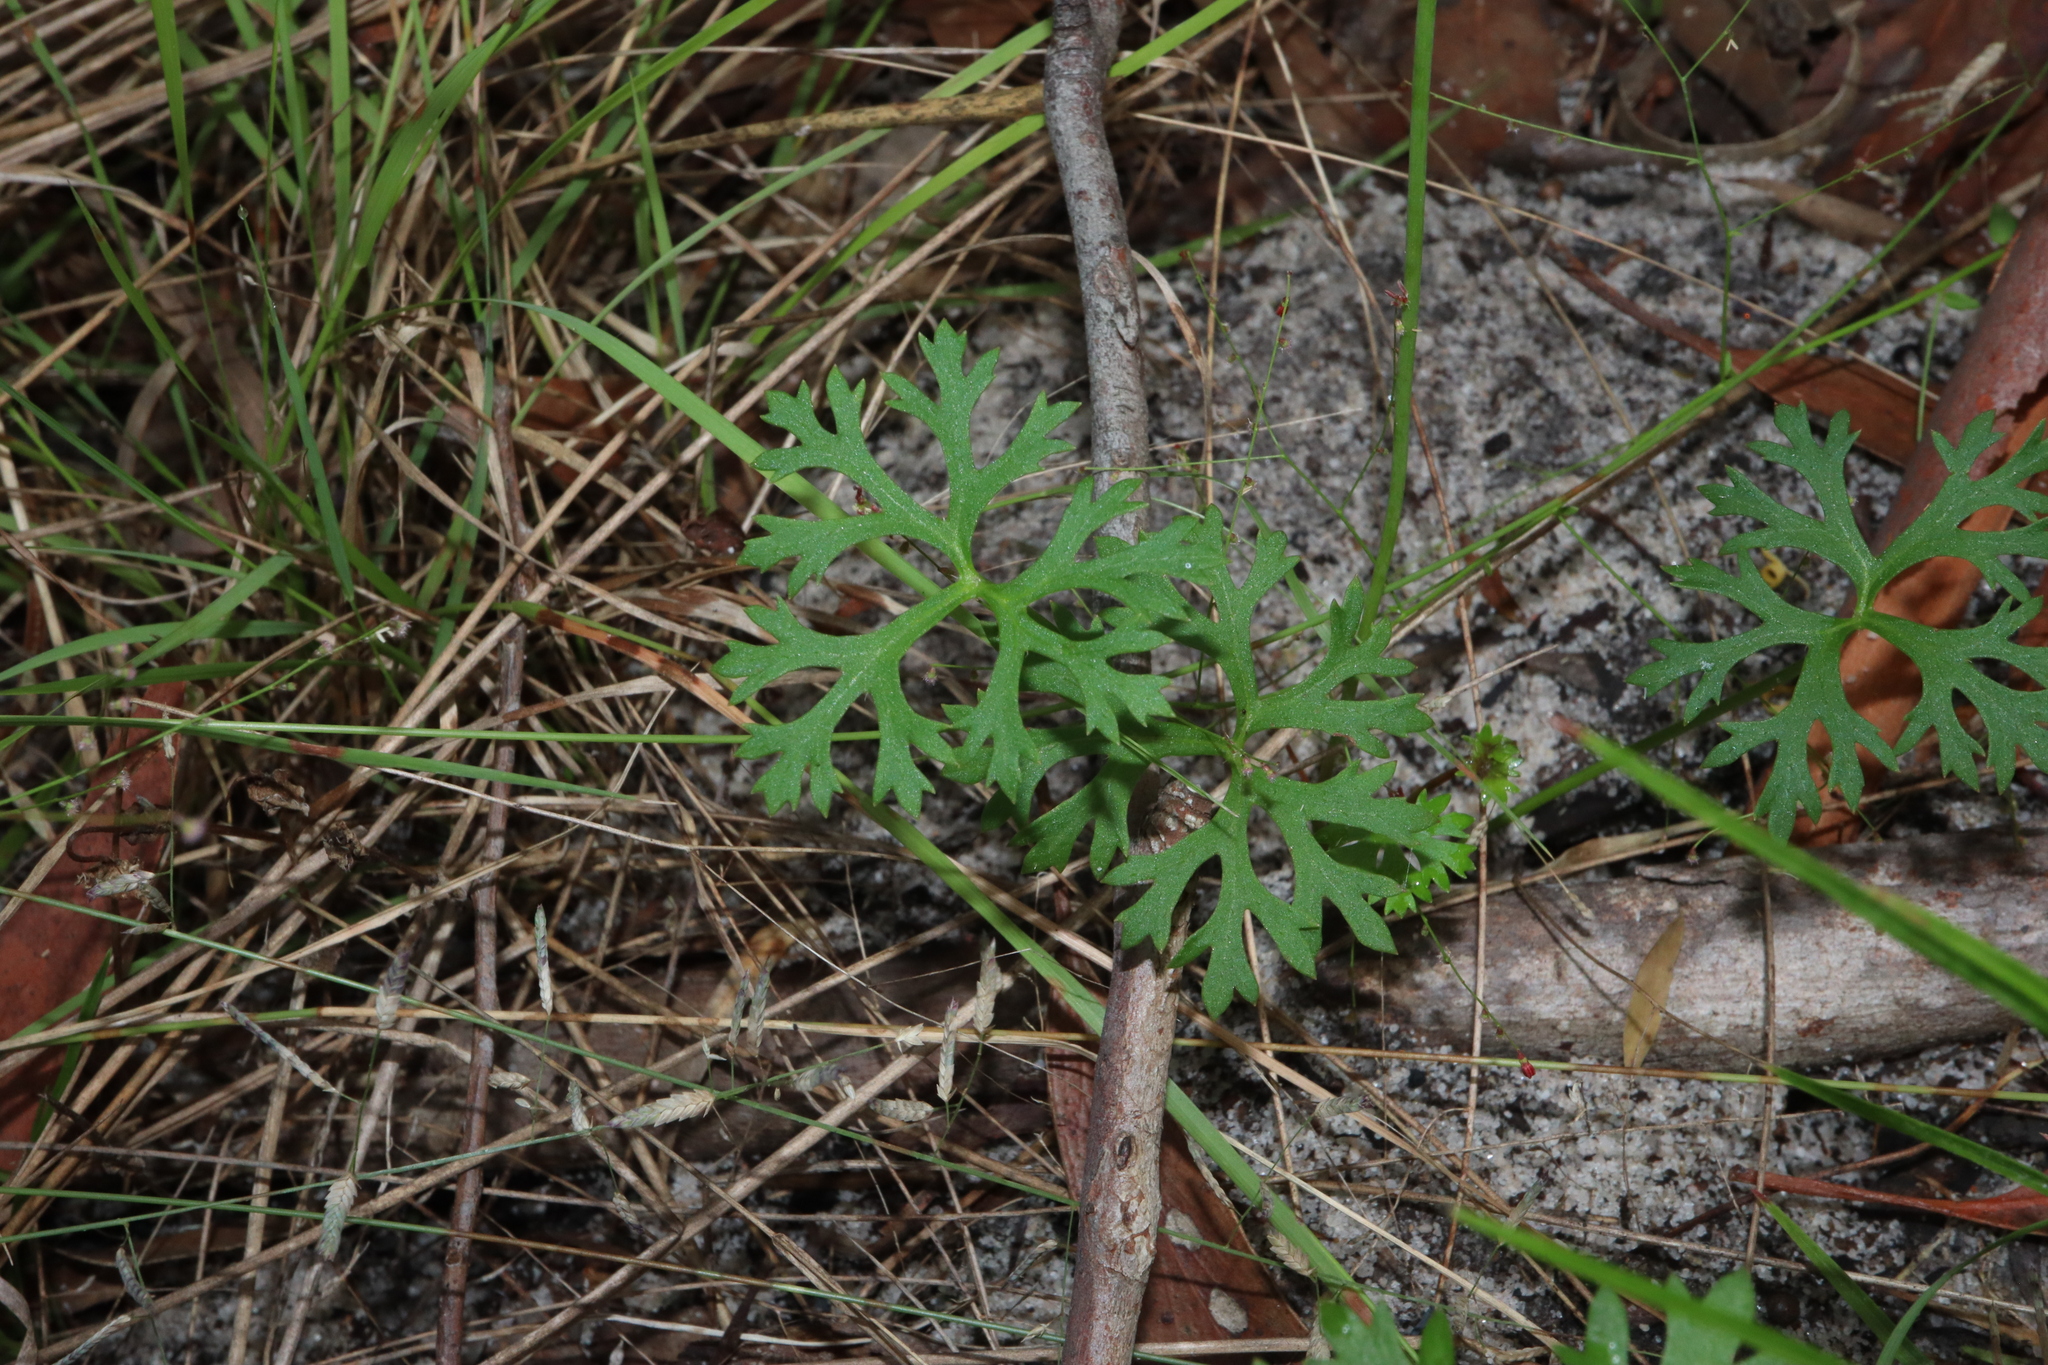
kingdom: Plantae
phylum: Tracheophyta
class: Magnoliopsida
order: Apiales
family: Araliaceae
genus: Trachymene
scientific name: Trachymene incisa
